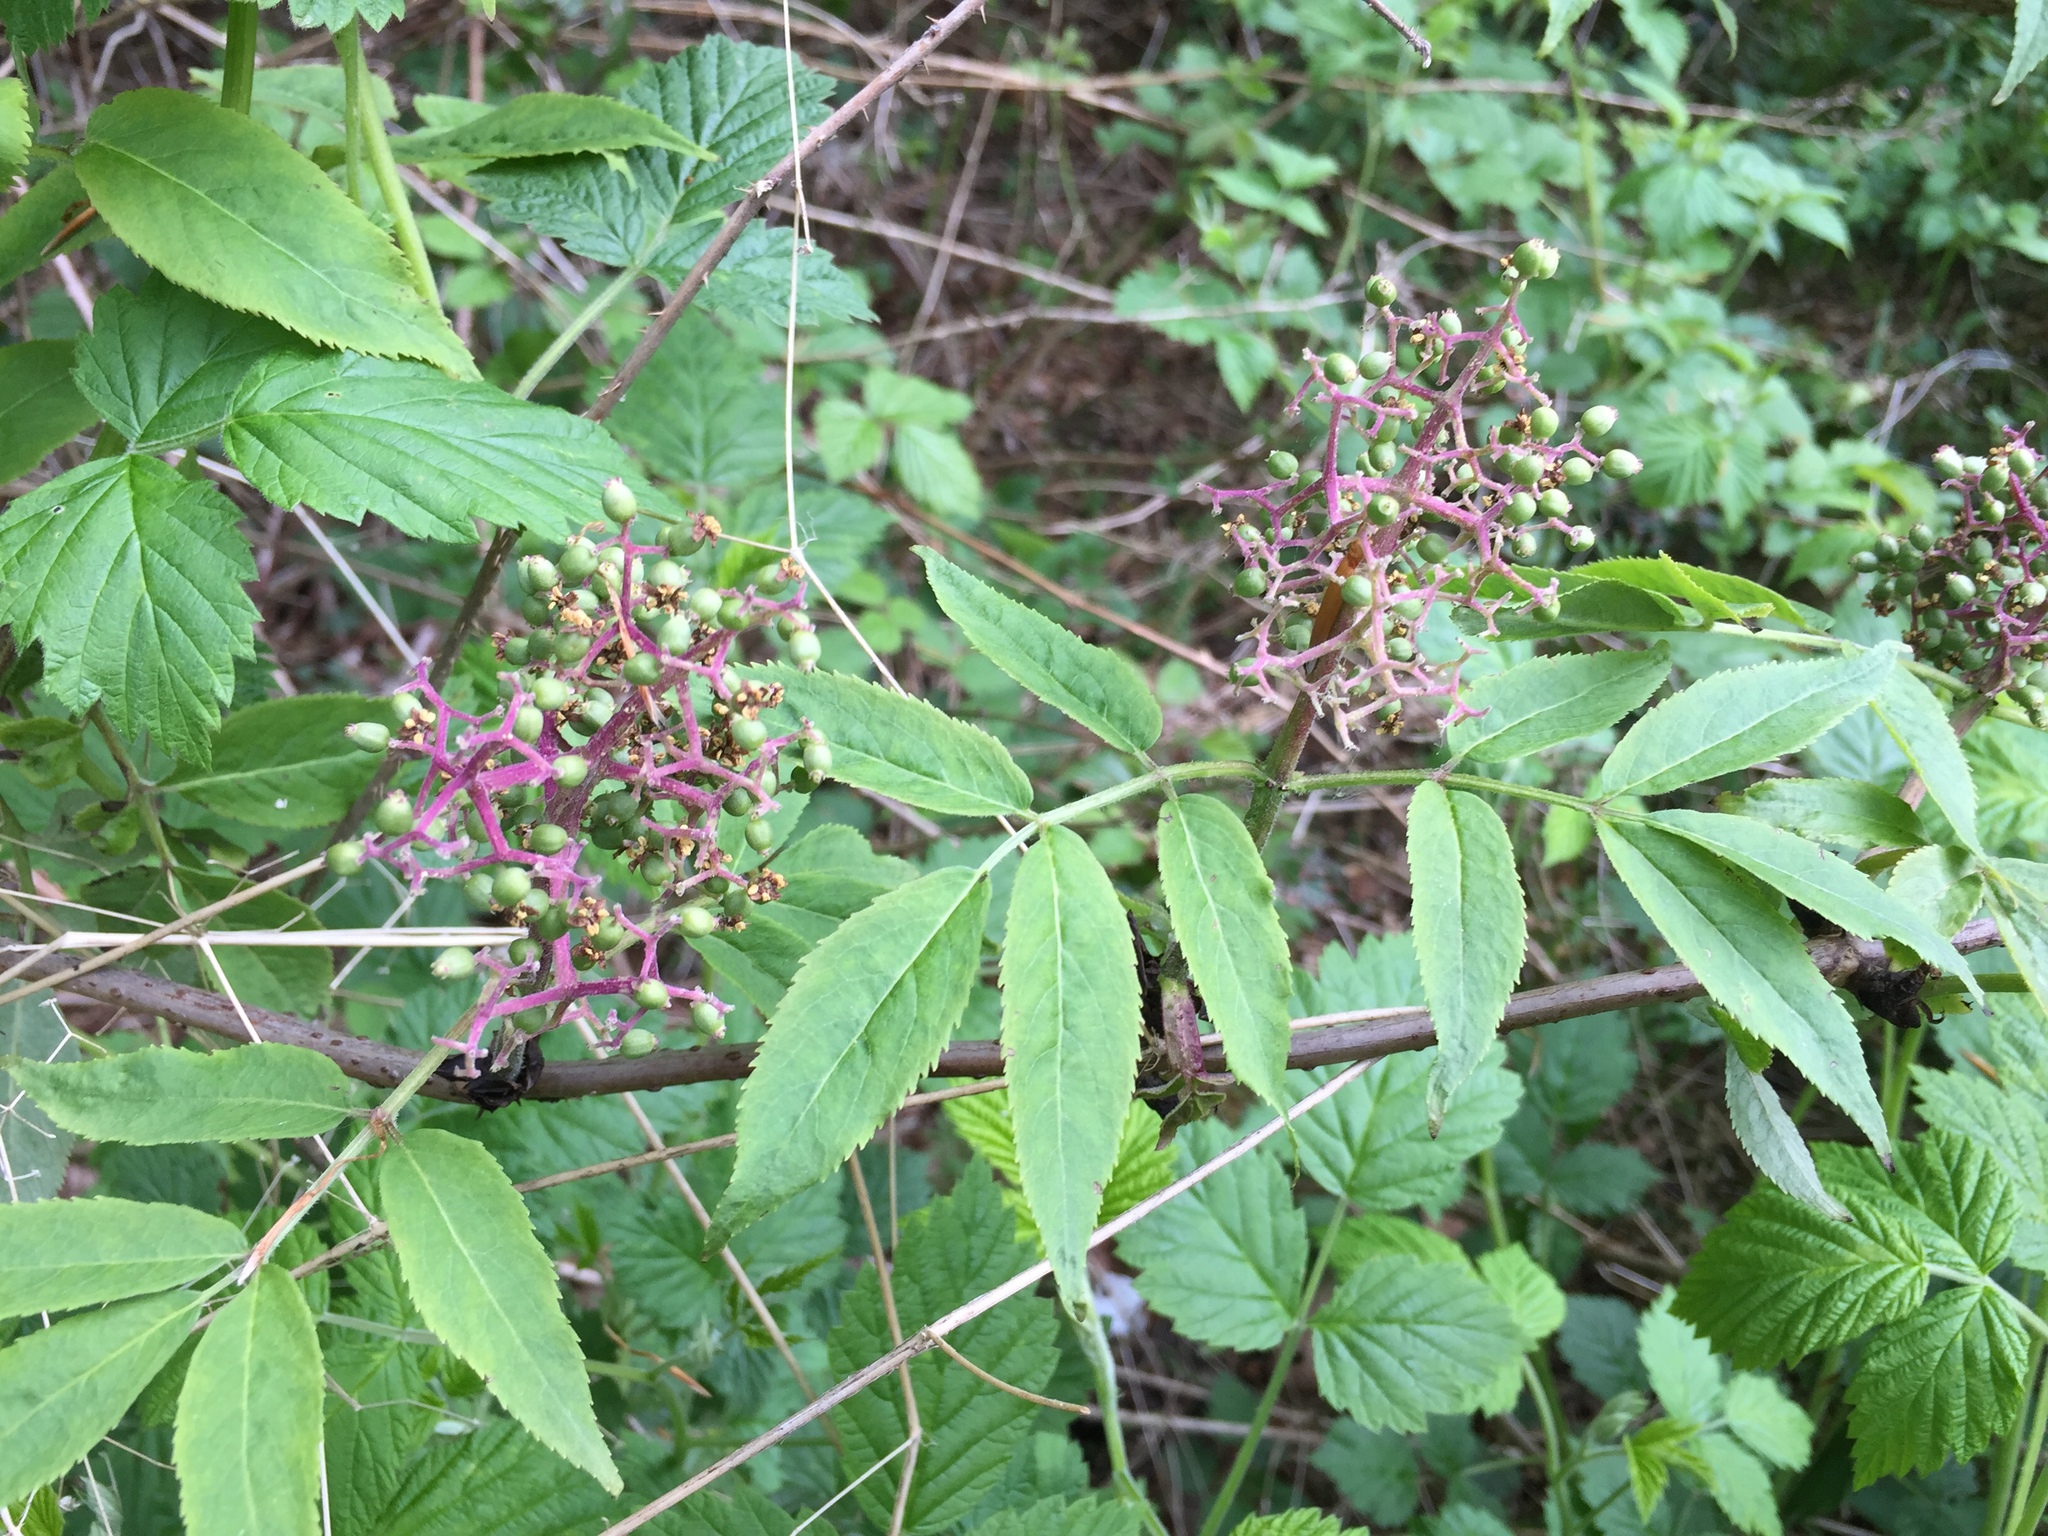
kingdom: Plantae
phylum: Tracheophyta
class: Magnoliopsida
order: Dipsacales
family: Viburnaceae
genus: Sambucus
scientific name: Sambucus racemosa
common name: Red-berried elder
